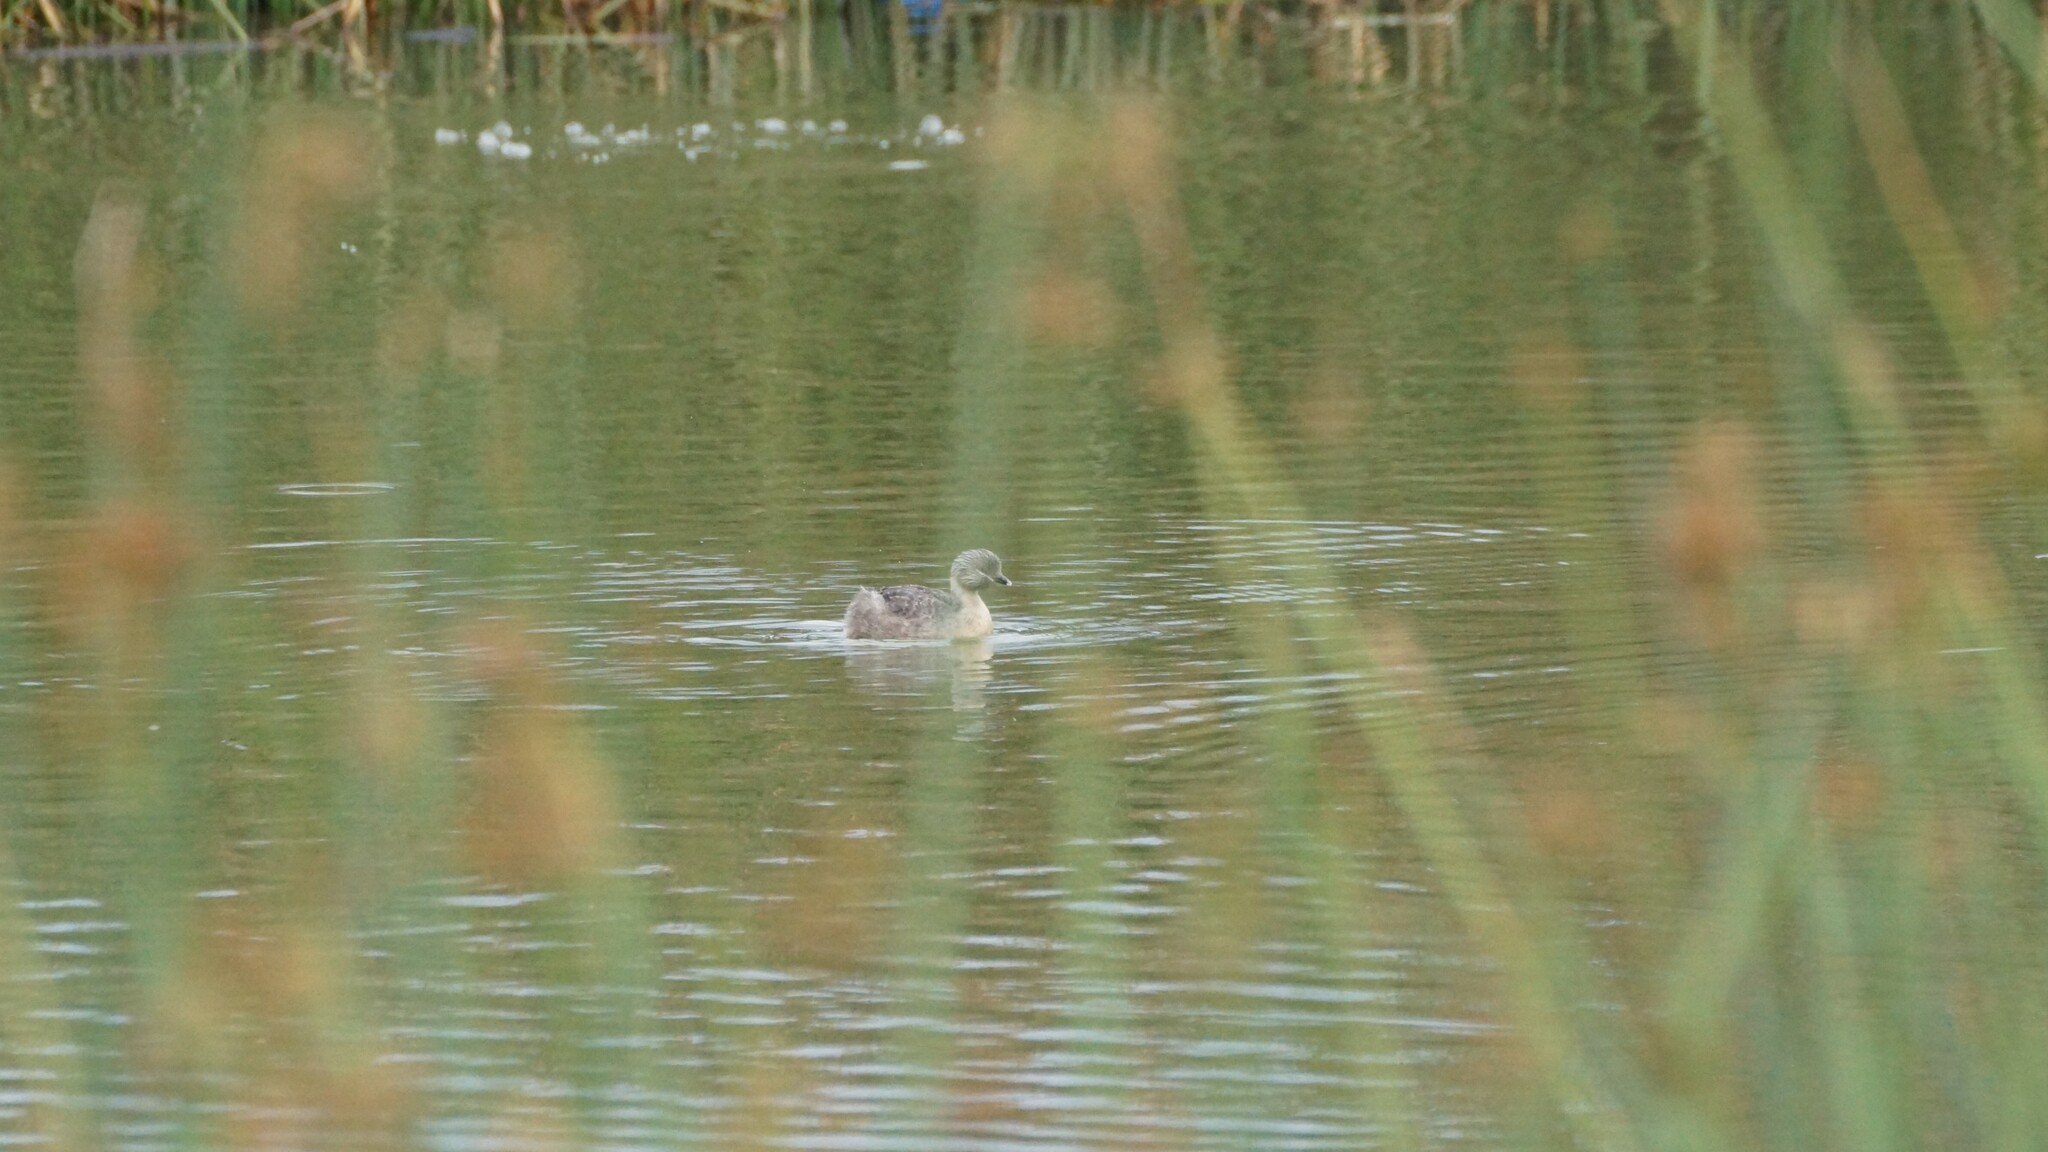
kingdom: Animalia
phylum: Chordata
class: Aves
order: Podicipediformes
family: Podicipedidae
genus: Poliocephalus
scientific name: Poliocephalus poliocephalus
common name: Hoary-headed grebe
